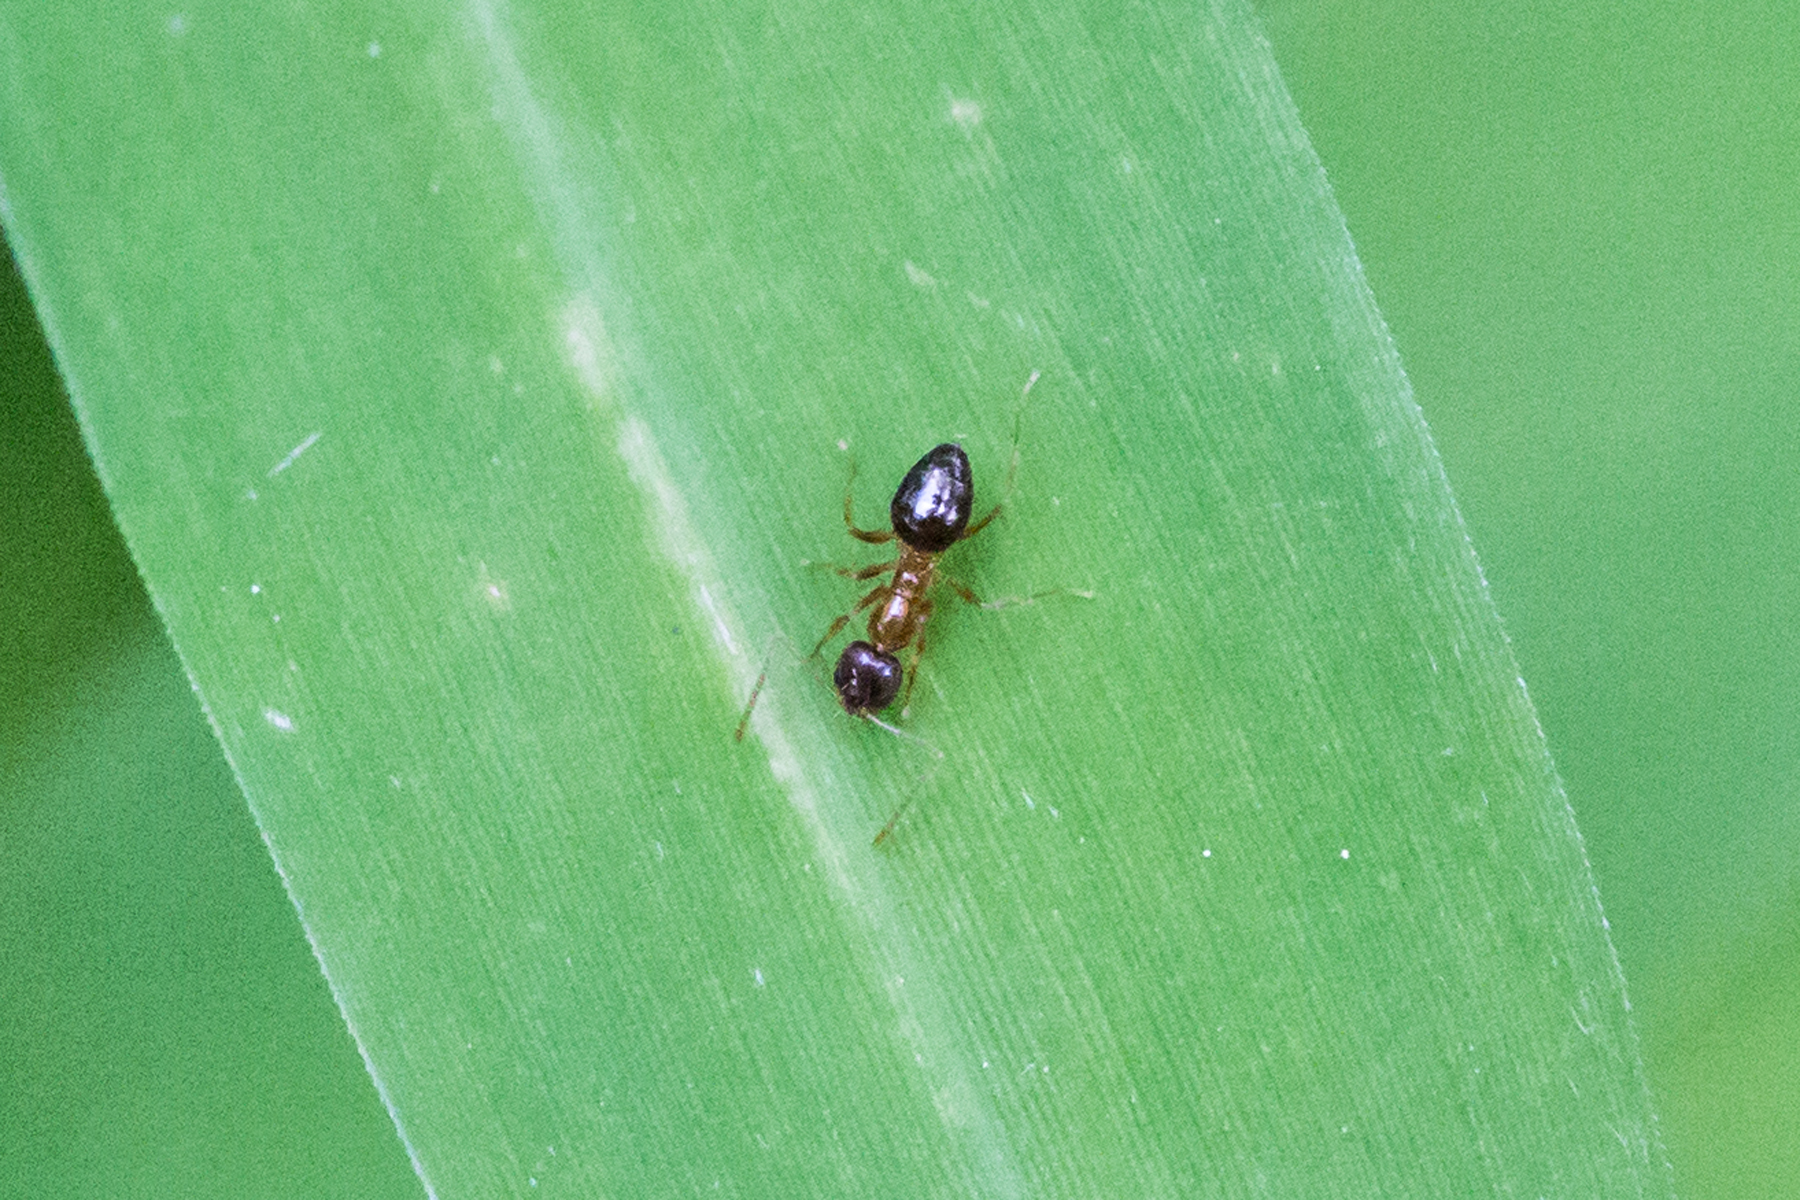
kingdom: Animalia
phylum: Arthropoda
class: Insecta
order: Hymenoptera
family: Formicidae
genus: Paratrechina
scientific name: Paratrechina flavipes
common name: Eastern asian formicine ant
